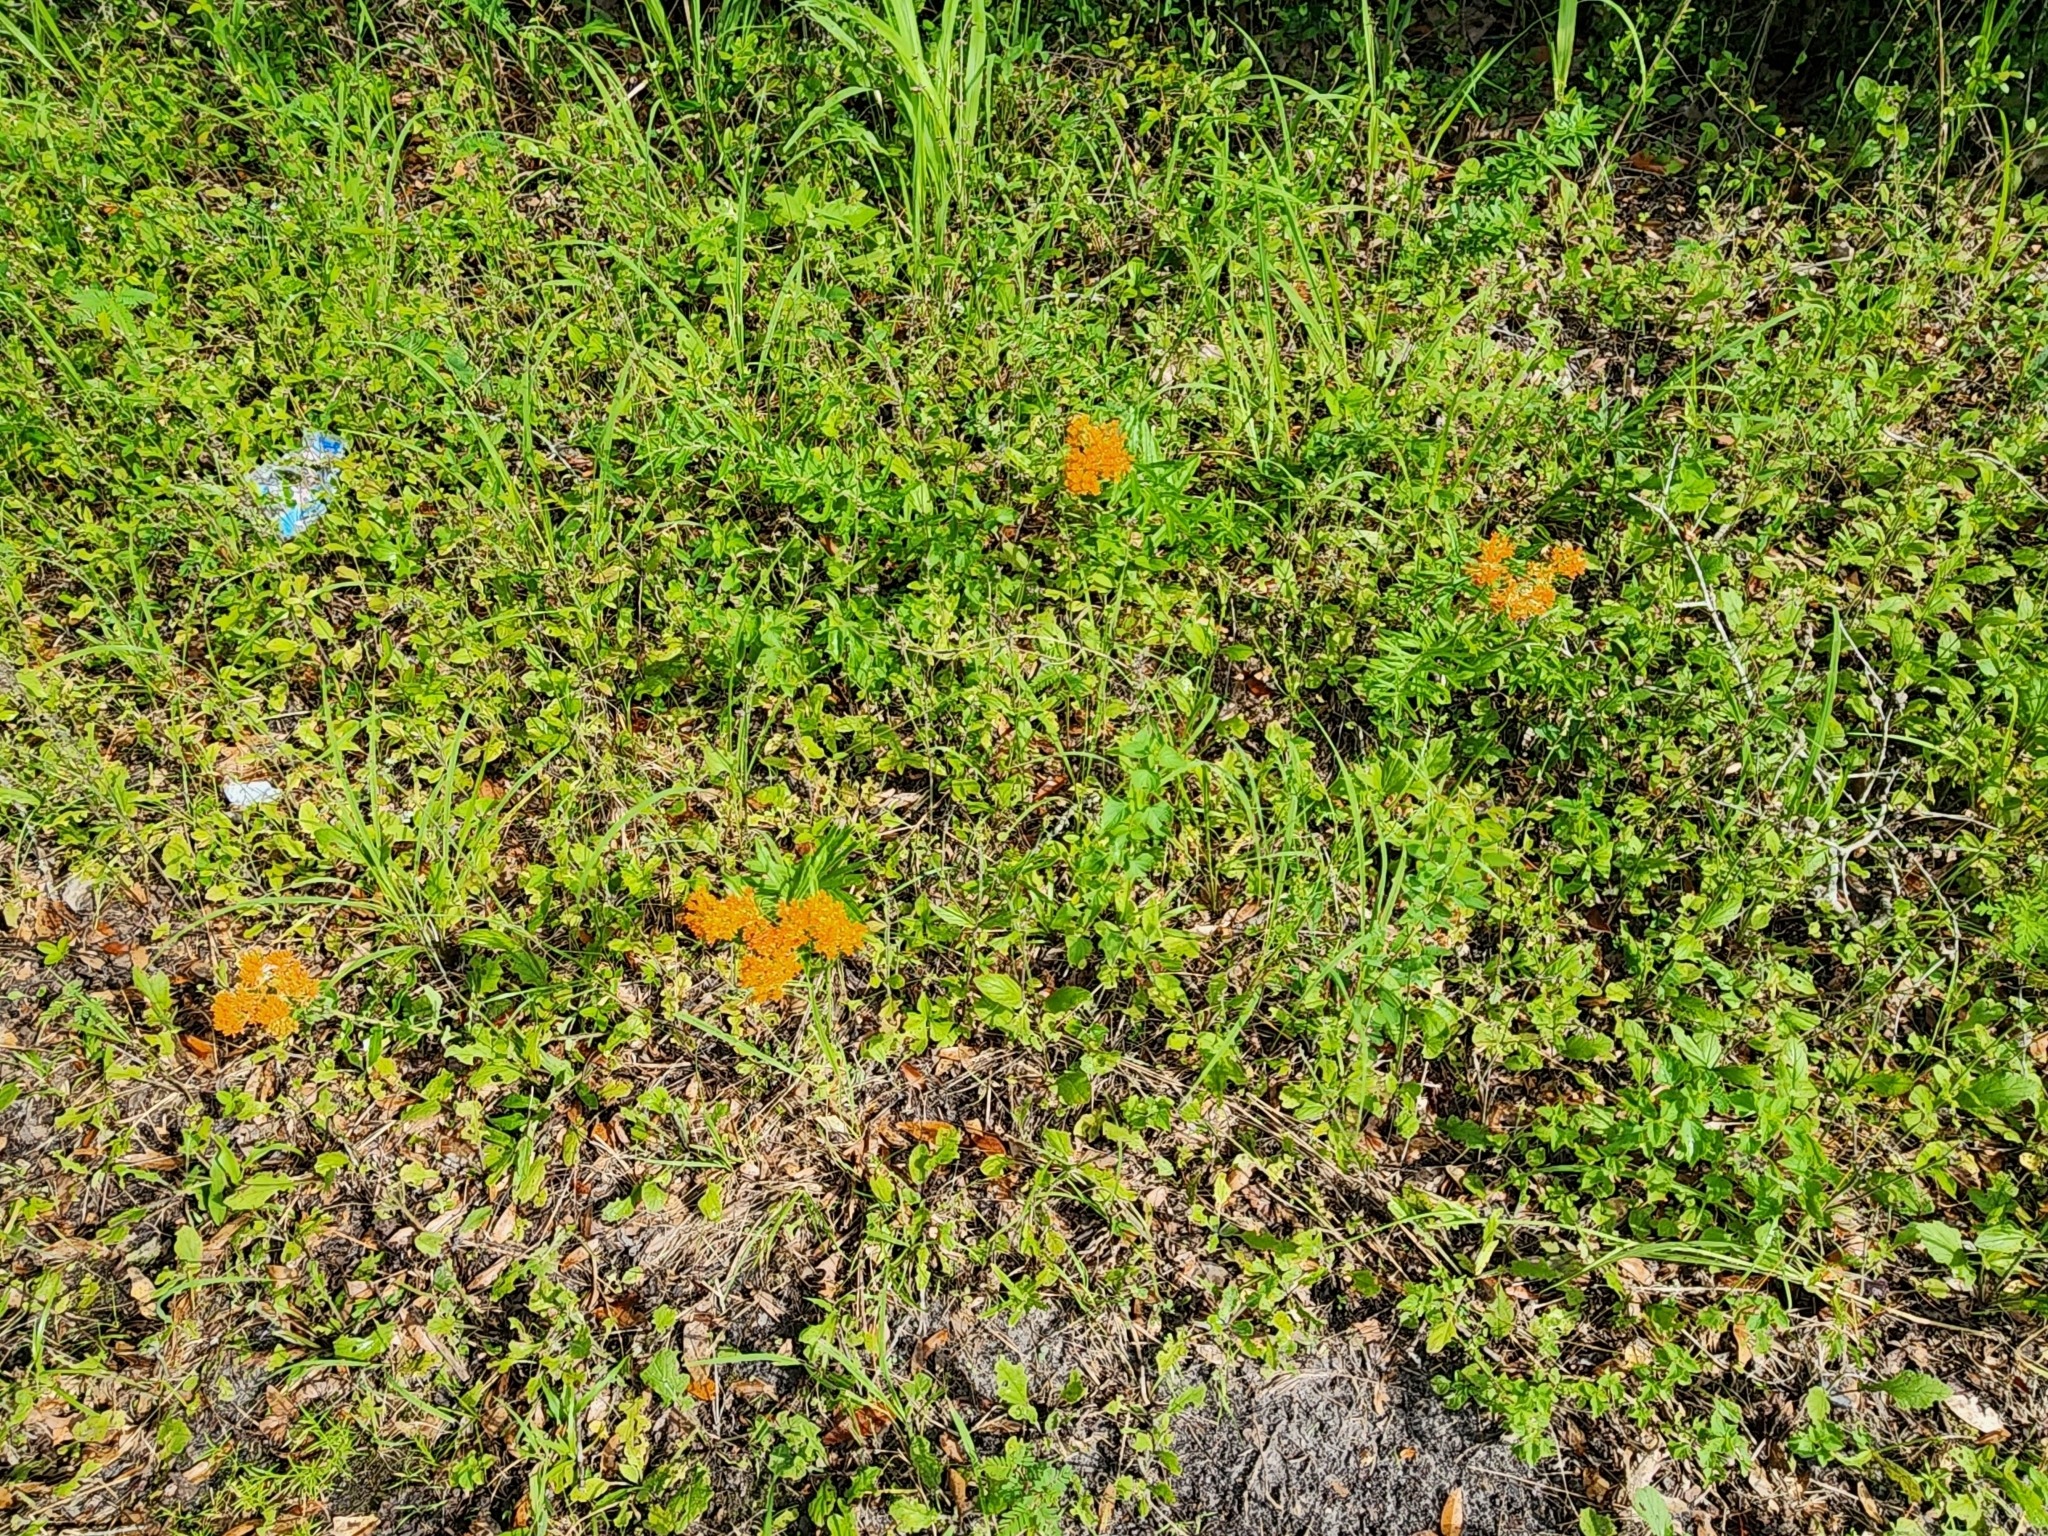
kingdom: Plantae
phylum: Tracheophyta
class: Magnoliopsida
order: Gentianales
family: Apocynaceae
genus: Asclepias
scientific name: Asclepias tuberosa
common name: Butterfly milkweed
